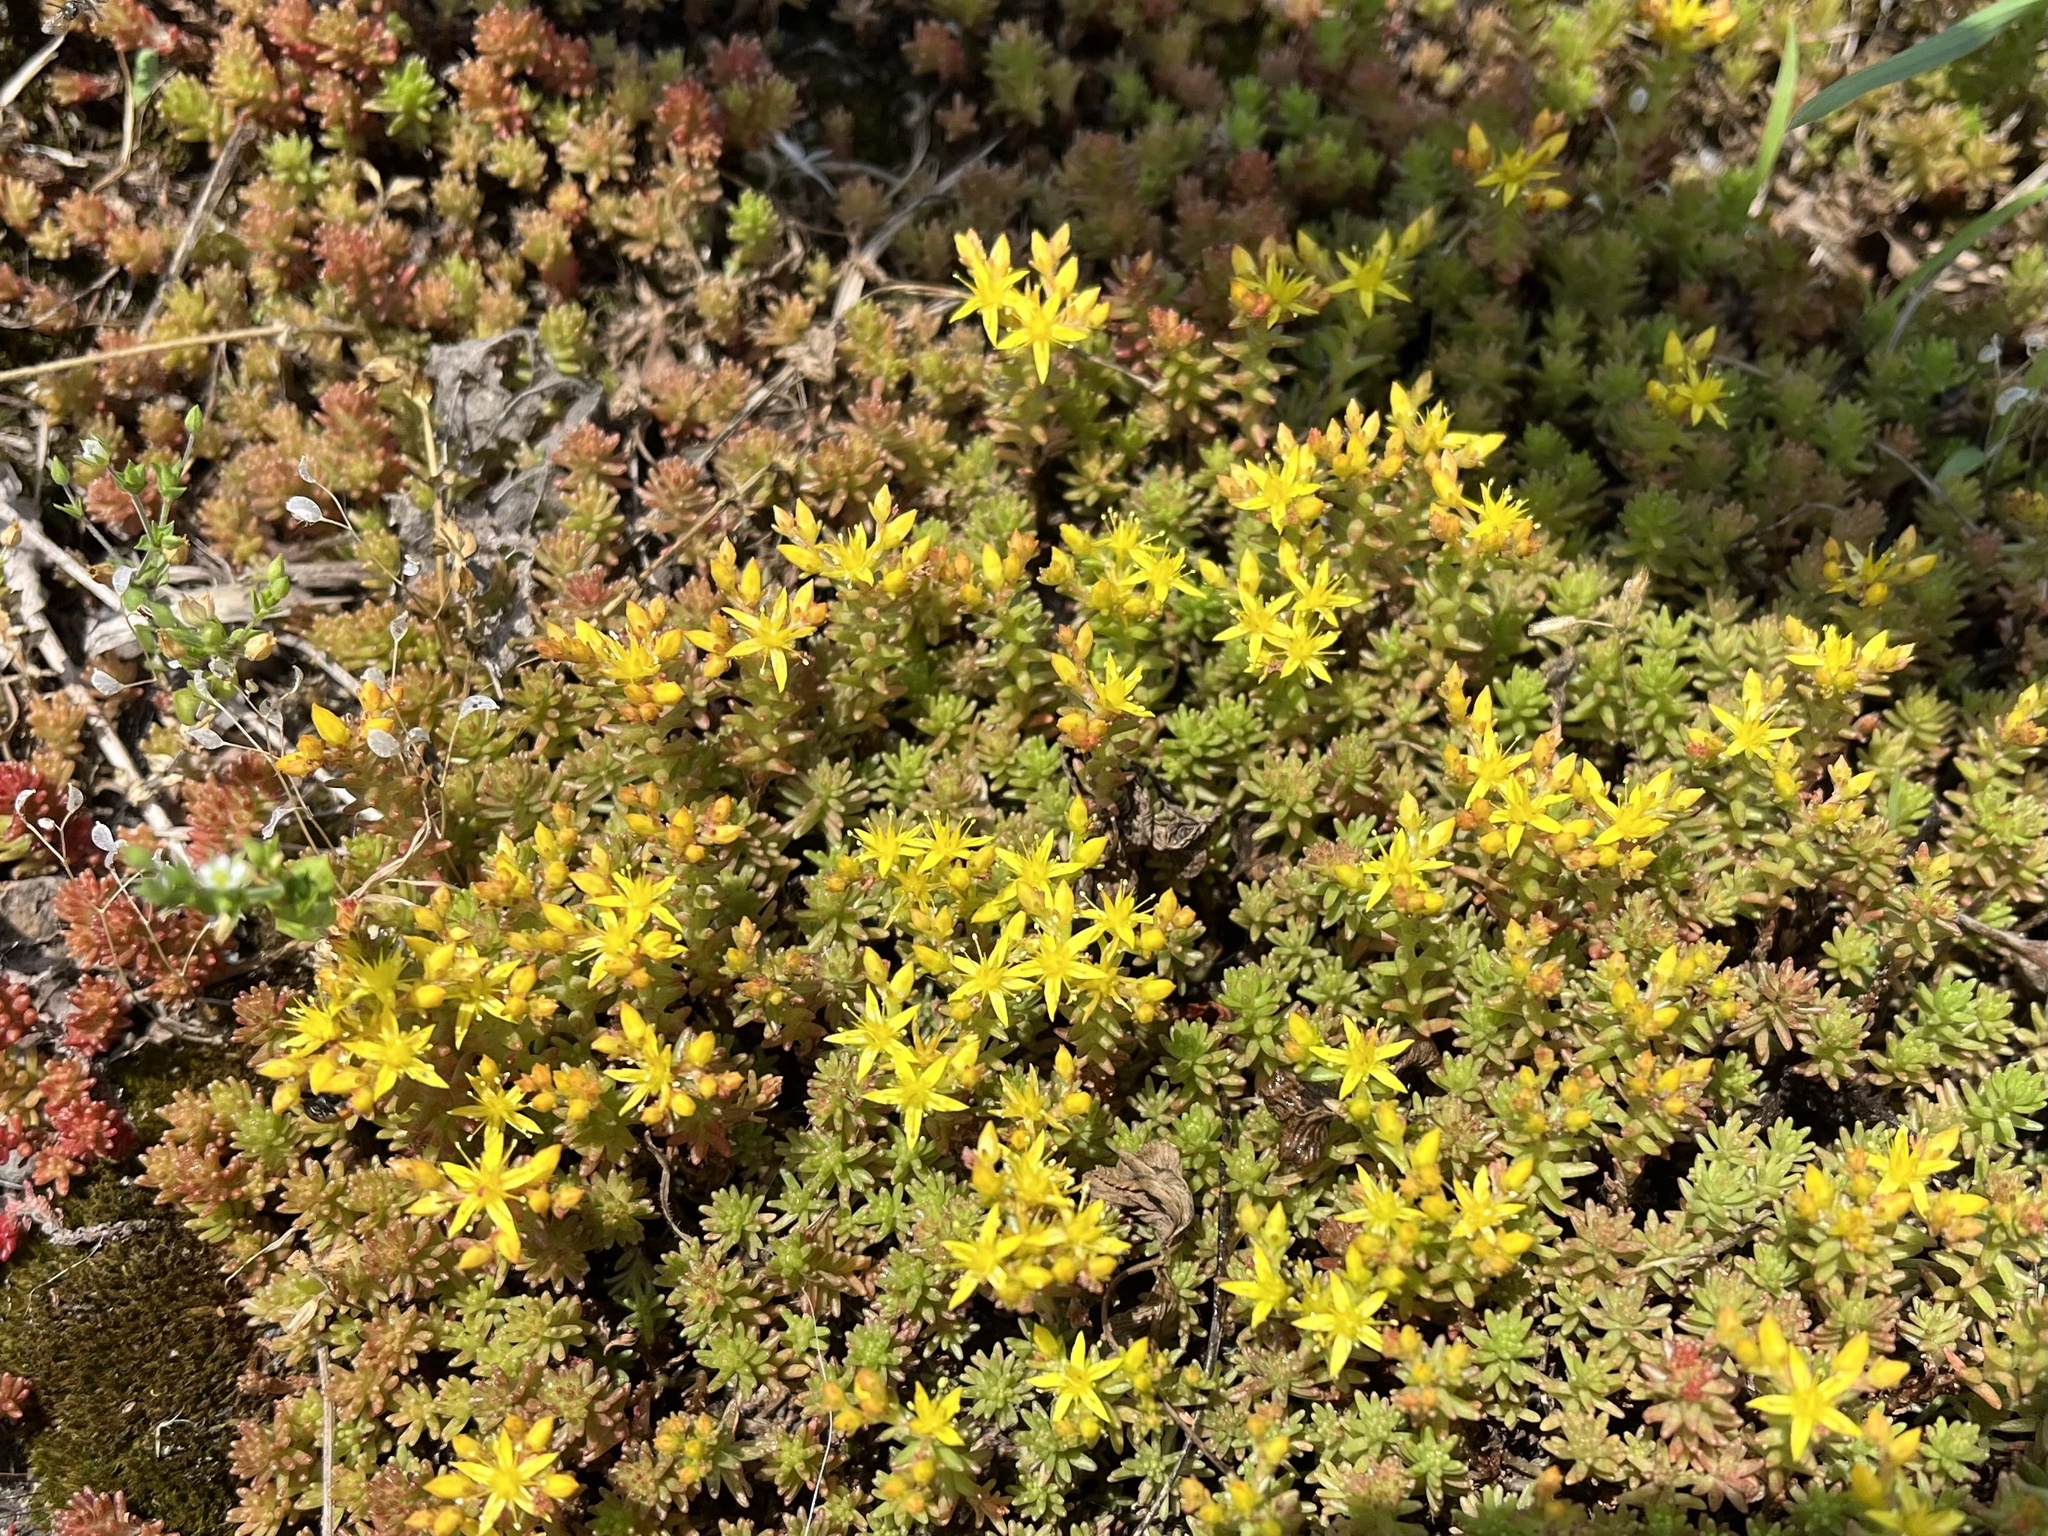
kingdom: Plantae
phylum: Tracheophyta
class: Magnoliopsida
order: Saxifragales
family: Crassulaceae
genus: Sedum
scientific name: Sedum sexangulare
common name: Tasteless stonecrop
